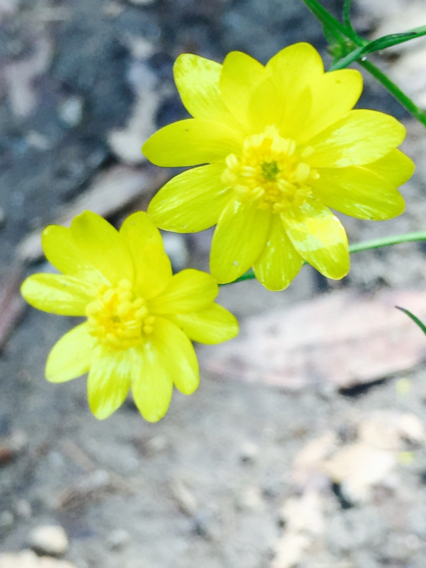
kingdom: Plantae
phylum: Tracheophyta
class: Magnoliopsida
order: Ranunculales
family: Ranunculaceae
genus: Ranunculus
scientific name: Ranunculus californicus
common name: California buttercup
